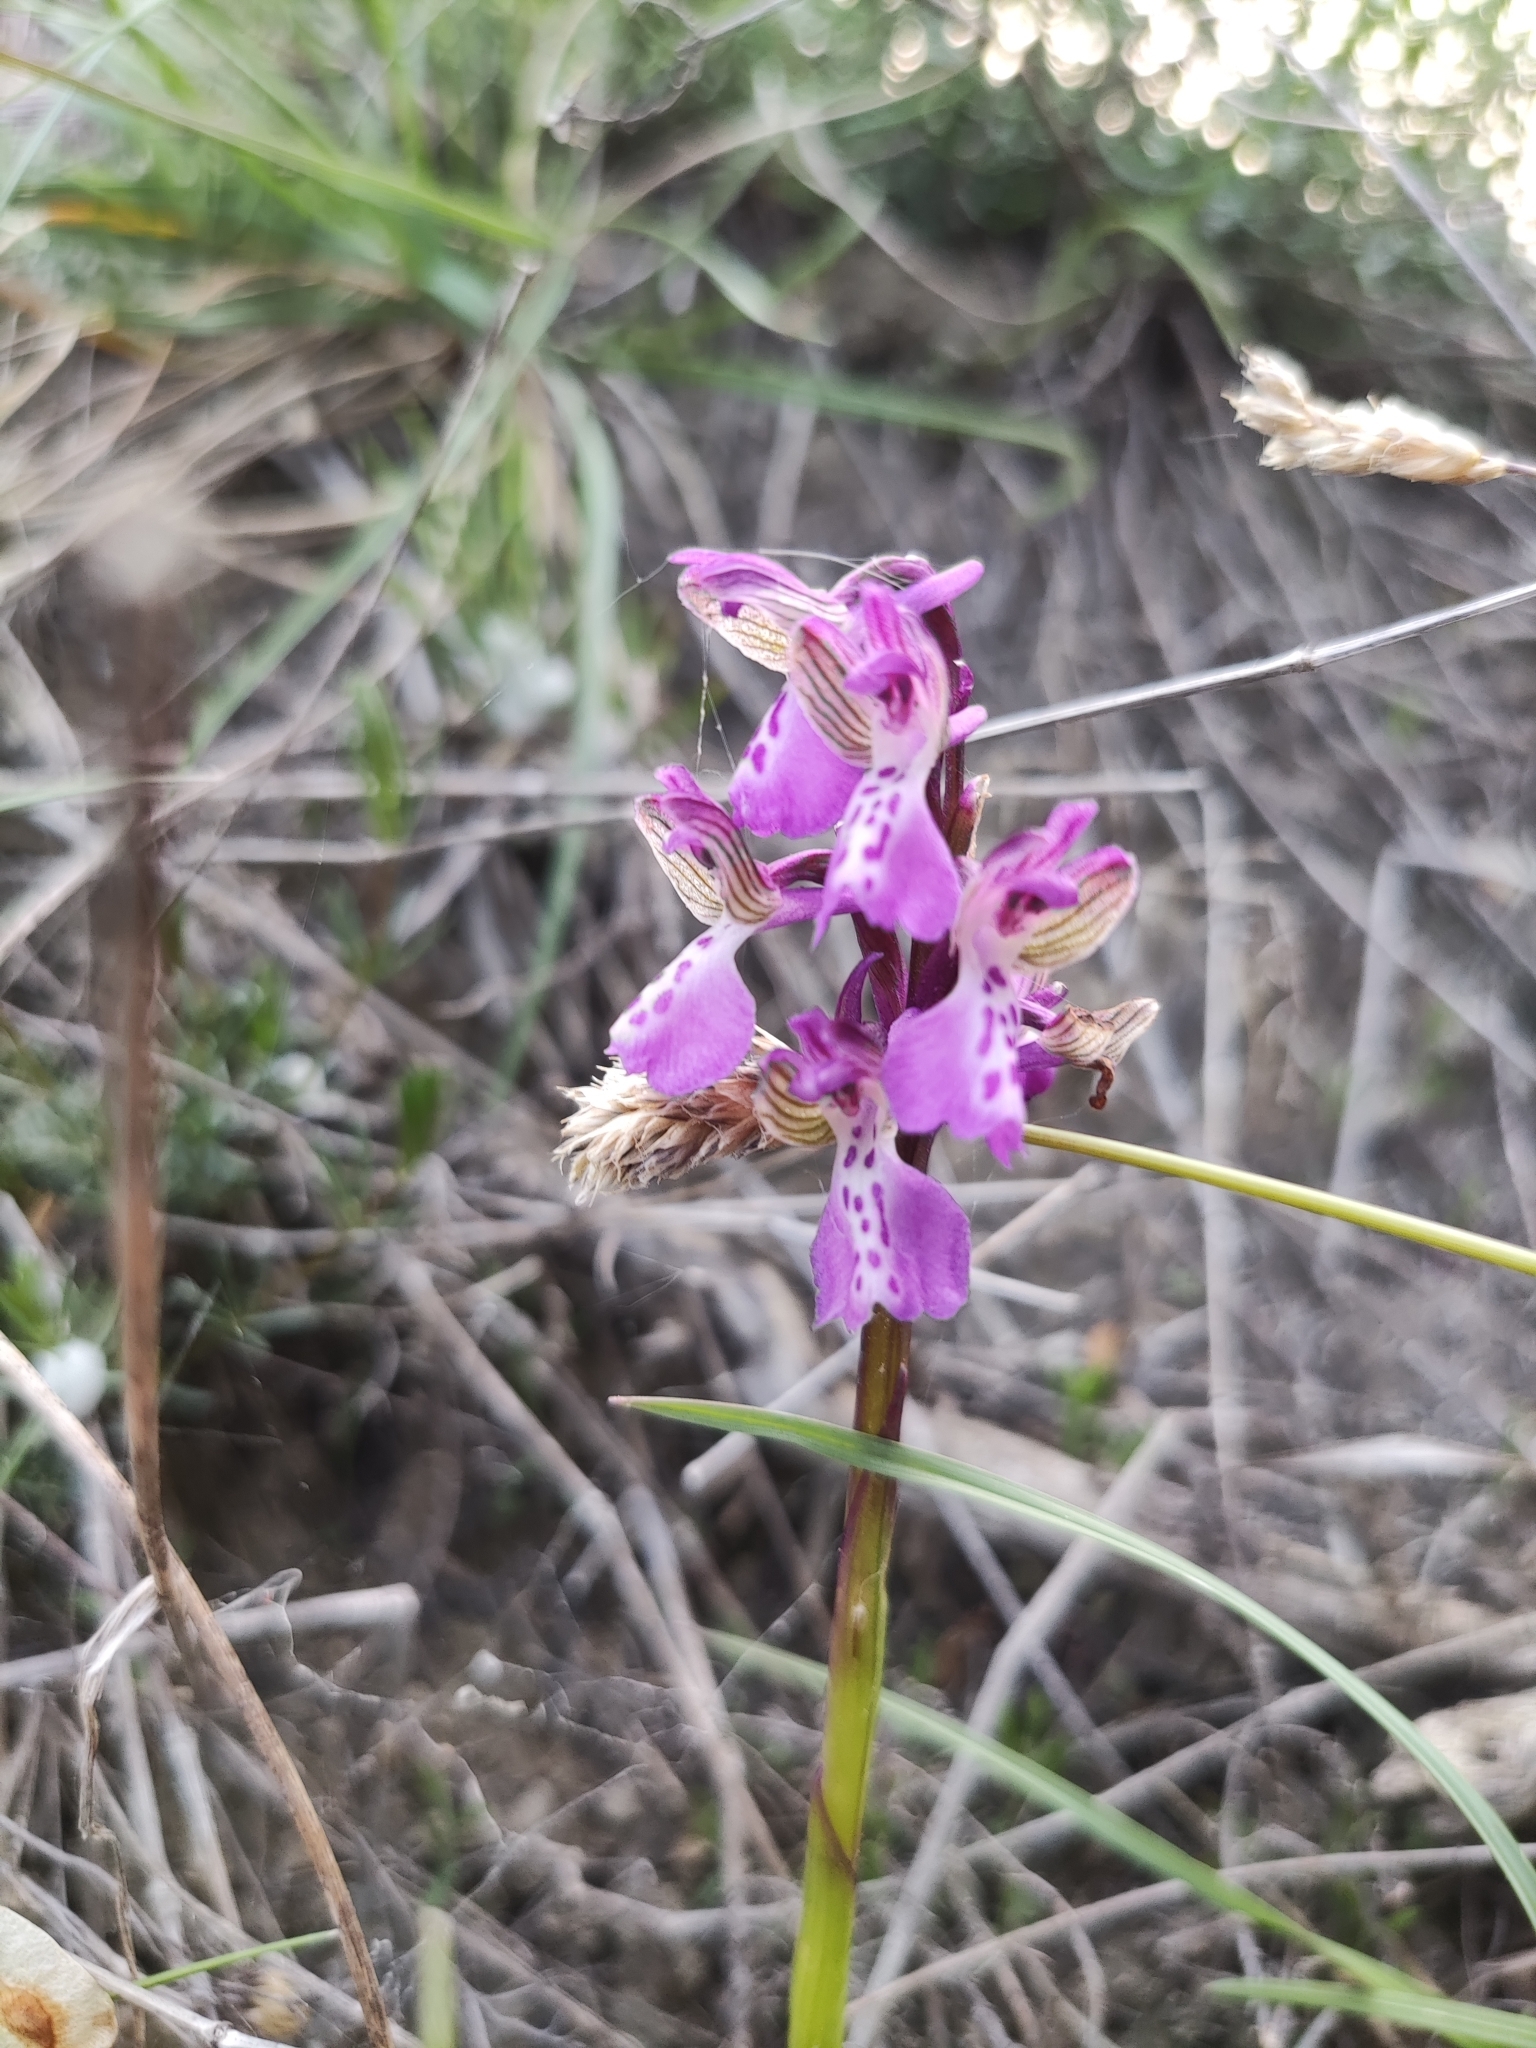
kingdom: Plantae
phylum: Tracheophyta
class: Liliopsida
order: Asparagales
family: Orchidaceae
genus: Anacamptis
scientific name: Anacamptis morio
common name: Green-winged orchid
